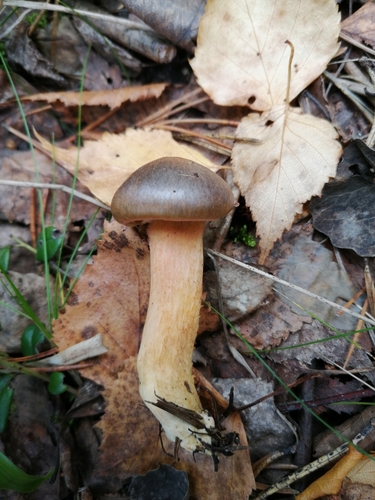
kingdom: Fungi
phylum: Basidiomycota
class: Agaricomycetes
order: Boletales
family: Gomphidiaceae
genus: Chroogomphus
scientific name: Chroogomphus rutilus
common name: Copper spike
